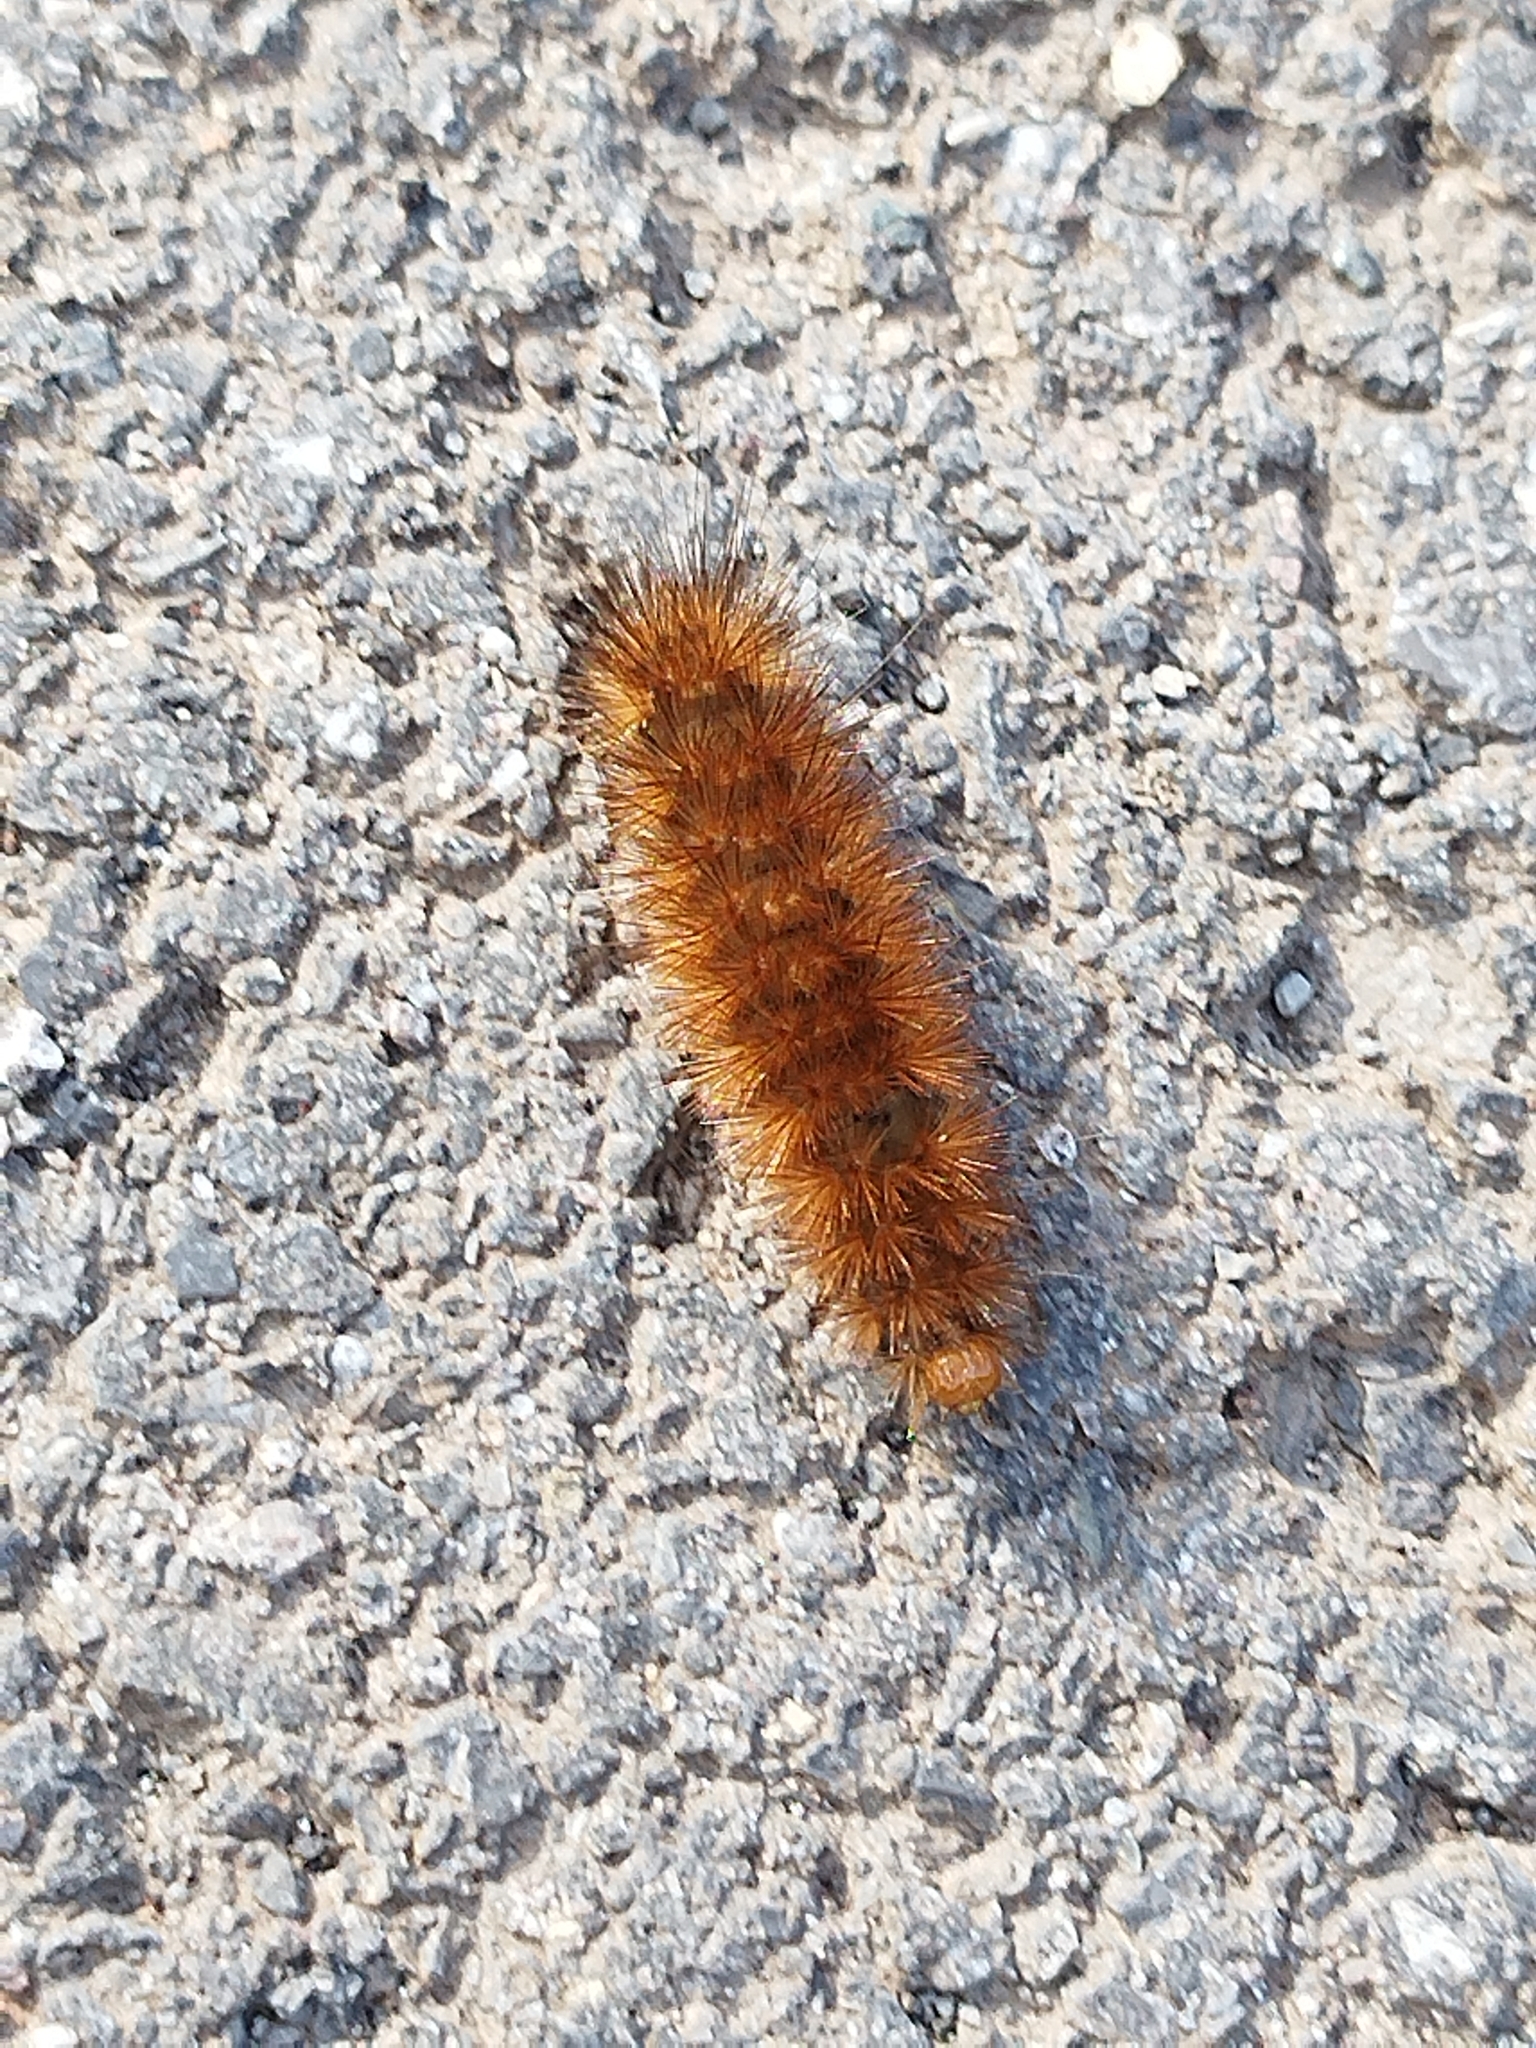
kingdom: Animalia
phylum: Arthropoda
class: Insecta
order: Lepidoptera
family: Erebidae
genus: Phragmatobia
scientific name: Phragmatobia fuliginosa
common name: Ruby tiger
